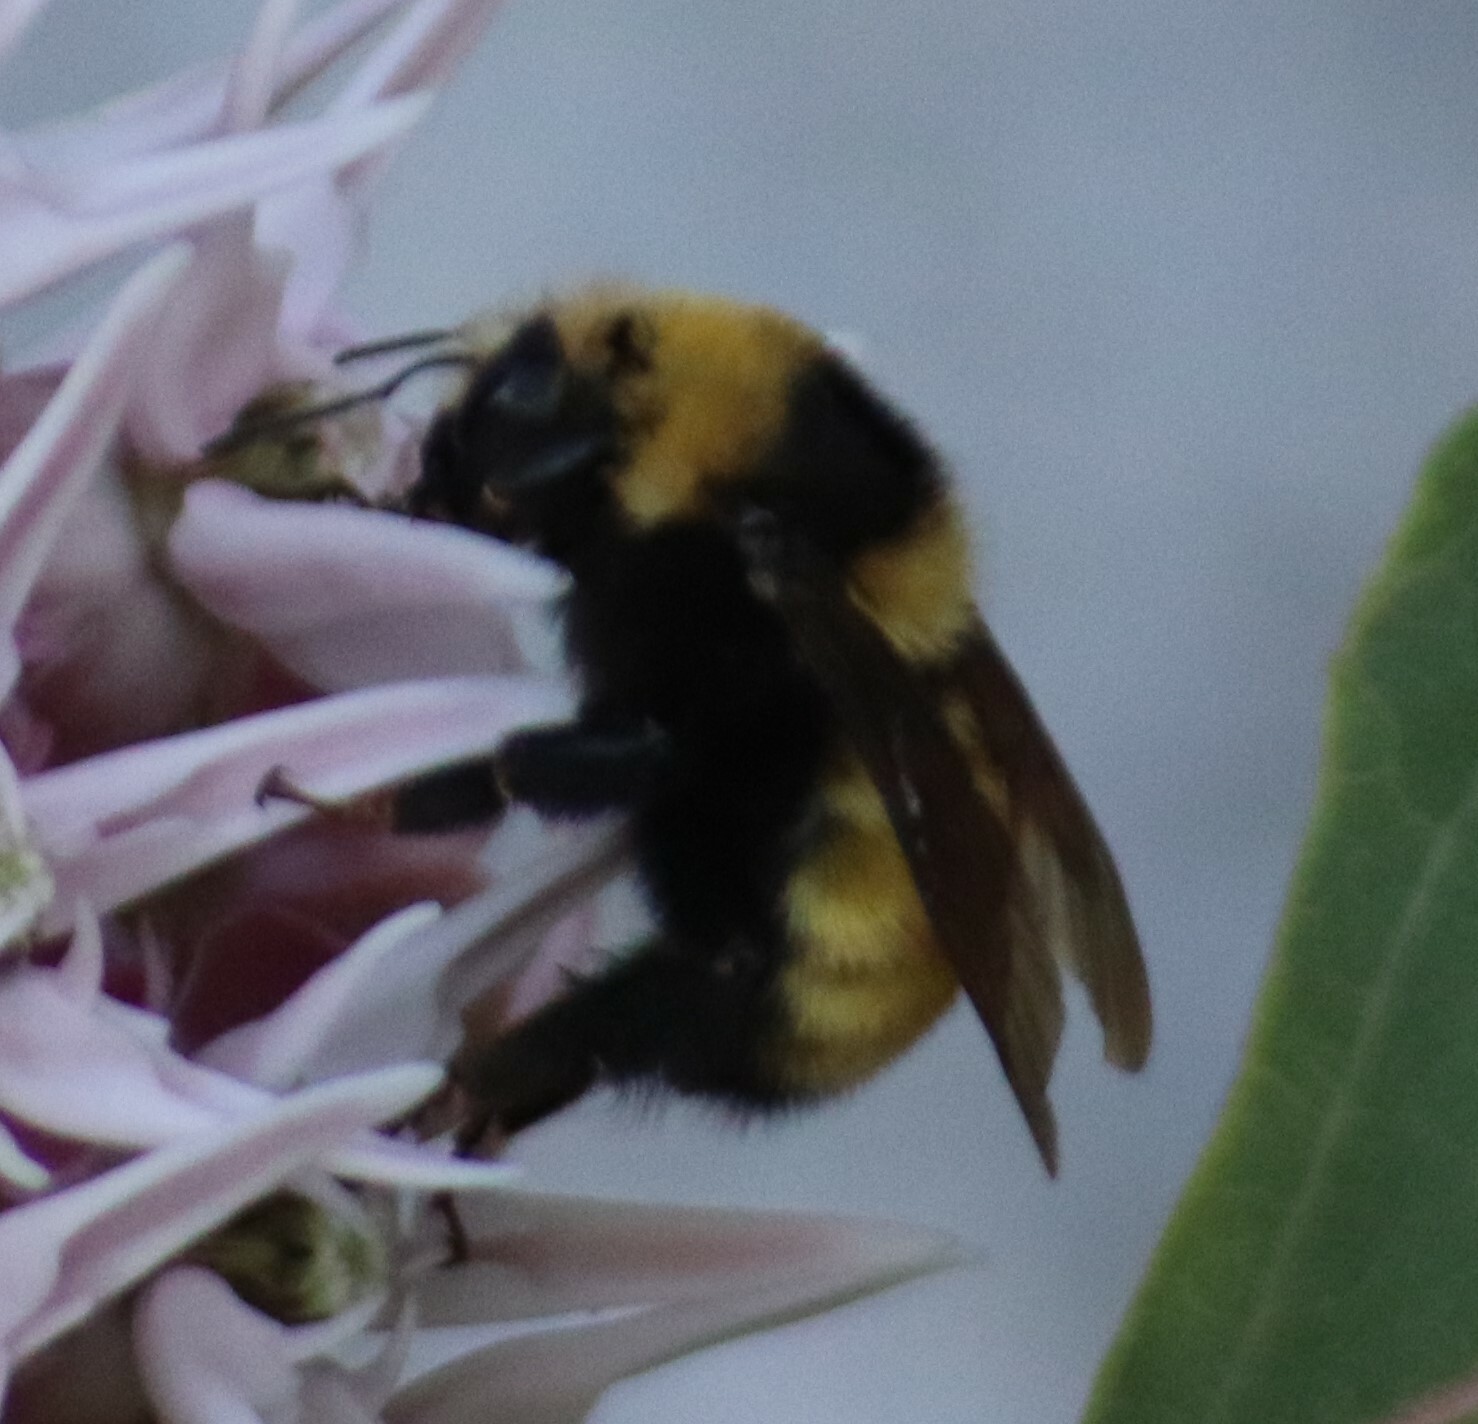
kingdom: Animalia
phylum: Arthropoda
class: Insecta
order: Hymenoptera
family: Apidae
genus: Bombus
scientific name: Bombus borealis
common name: Northern amber bumble bee
